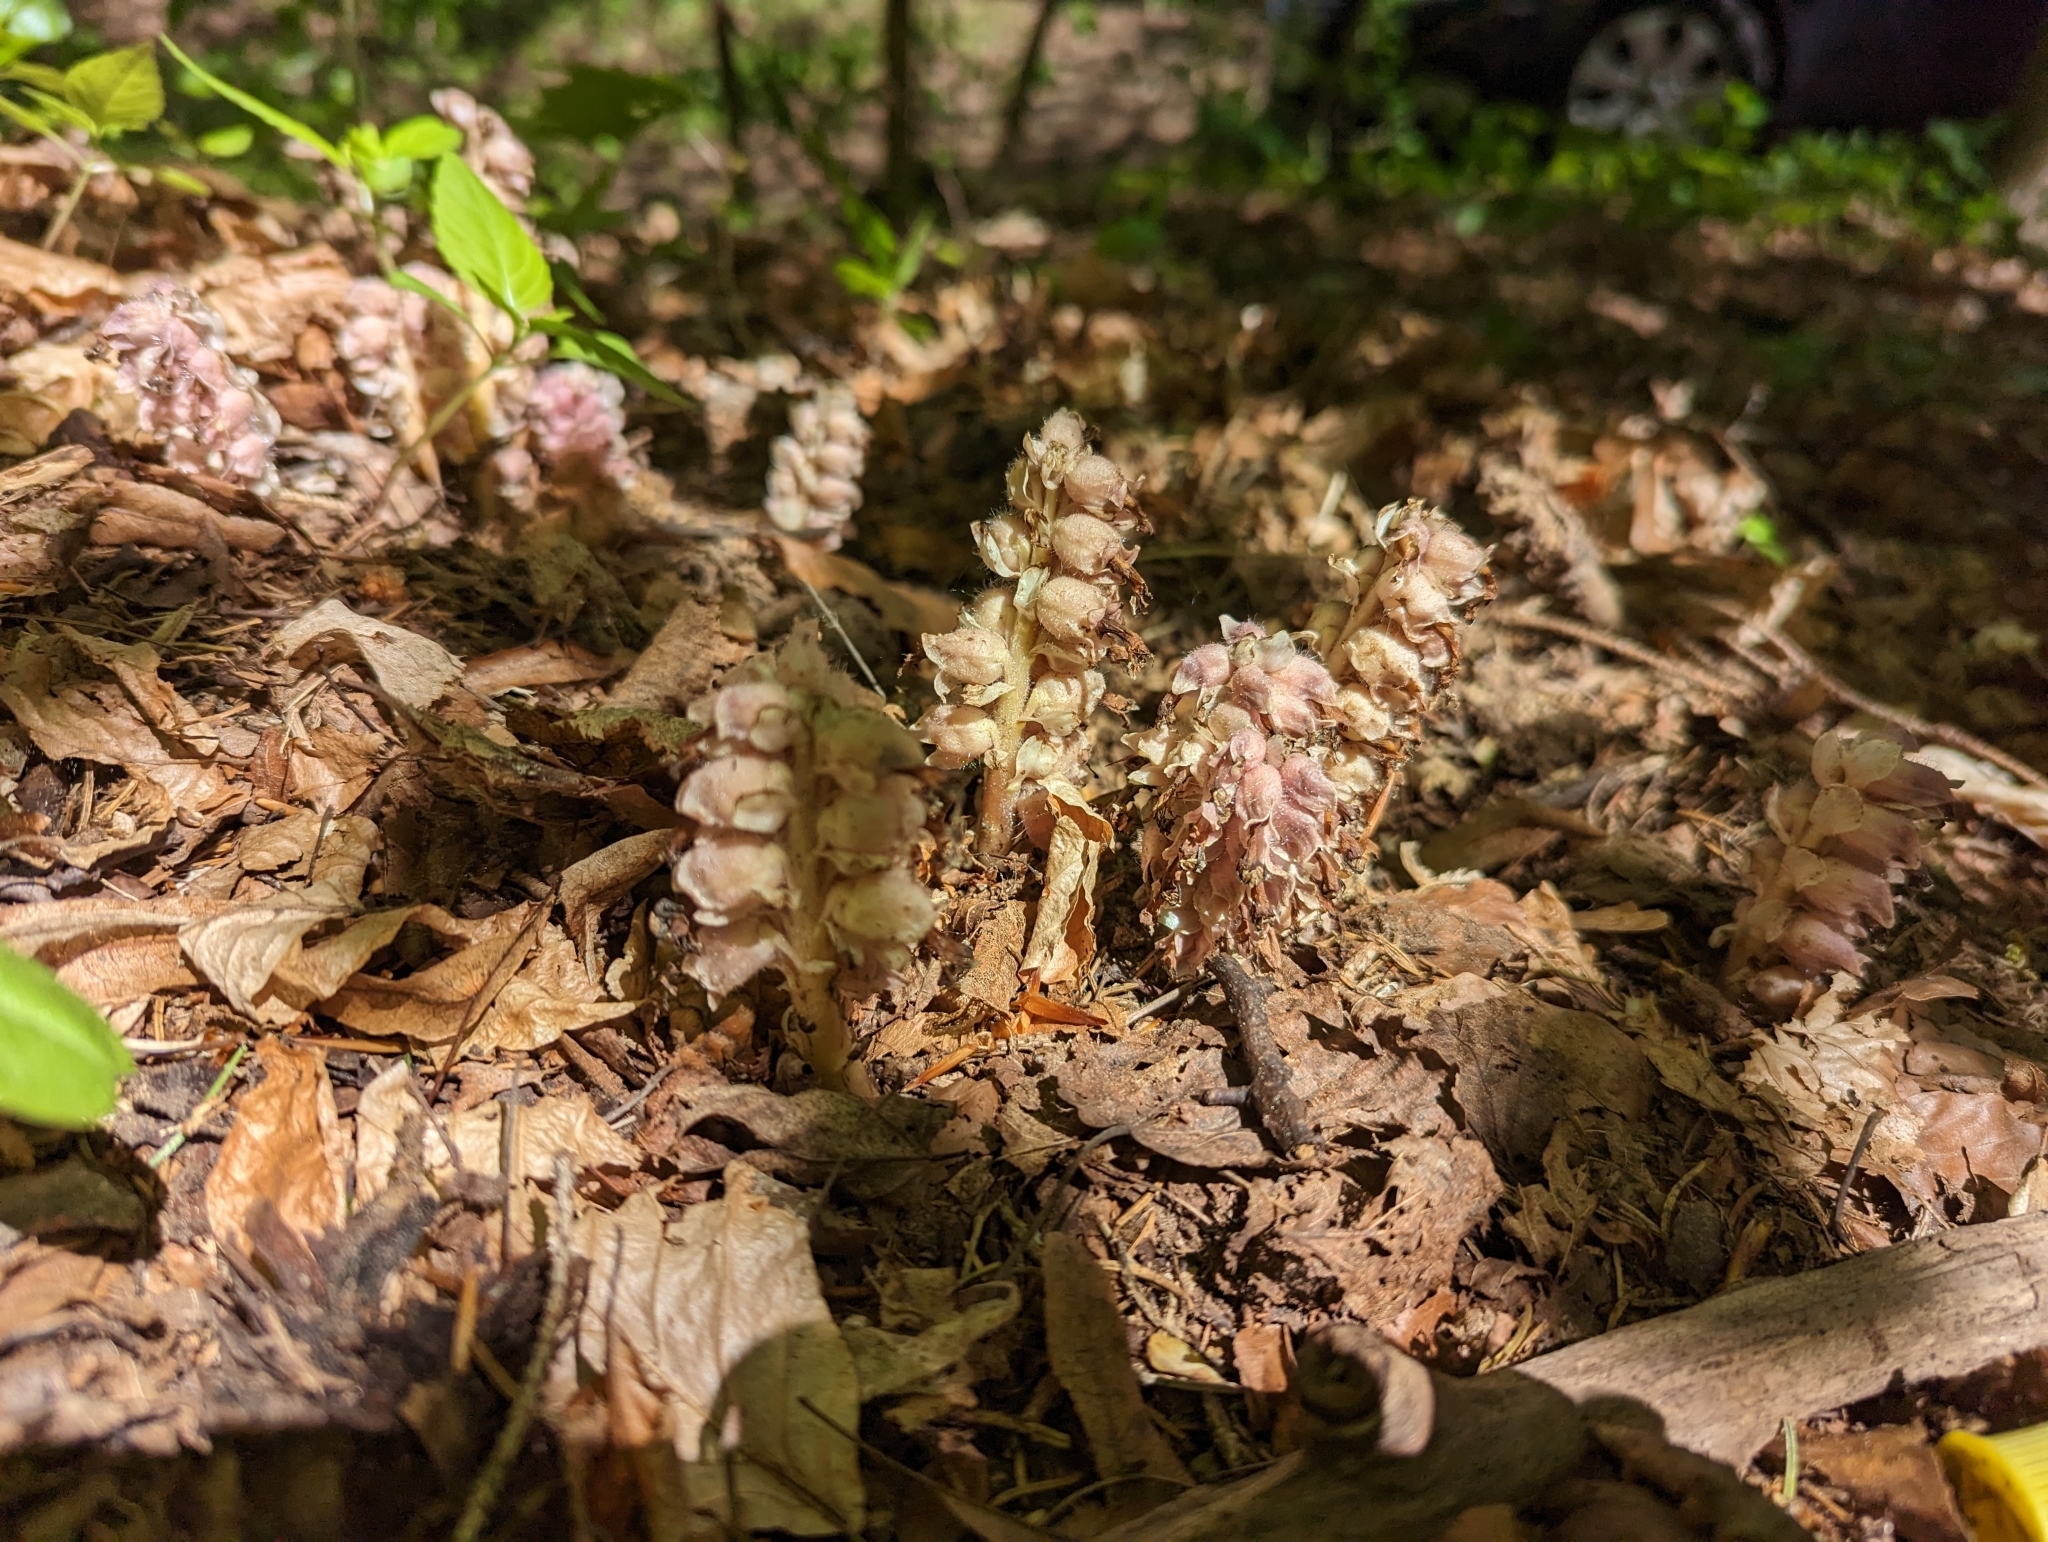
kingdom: Plantae
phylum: Tracheophyta
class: Magnoliopsida
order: Lamiales
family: Orobanchaceae
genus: Lathraea
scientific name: Lathraea squamaria
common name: Toothwort
